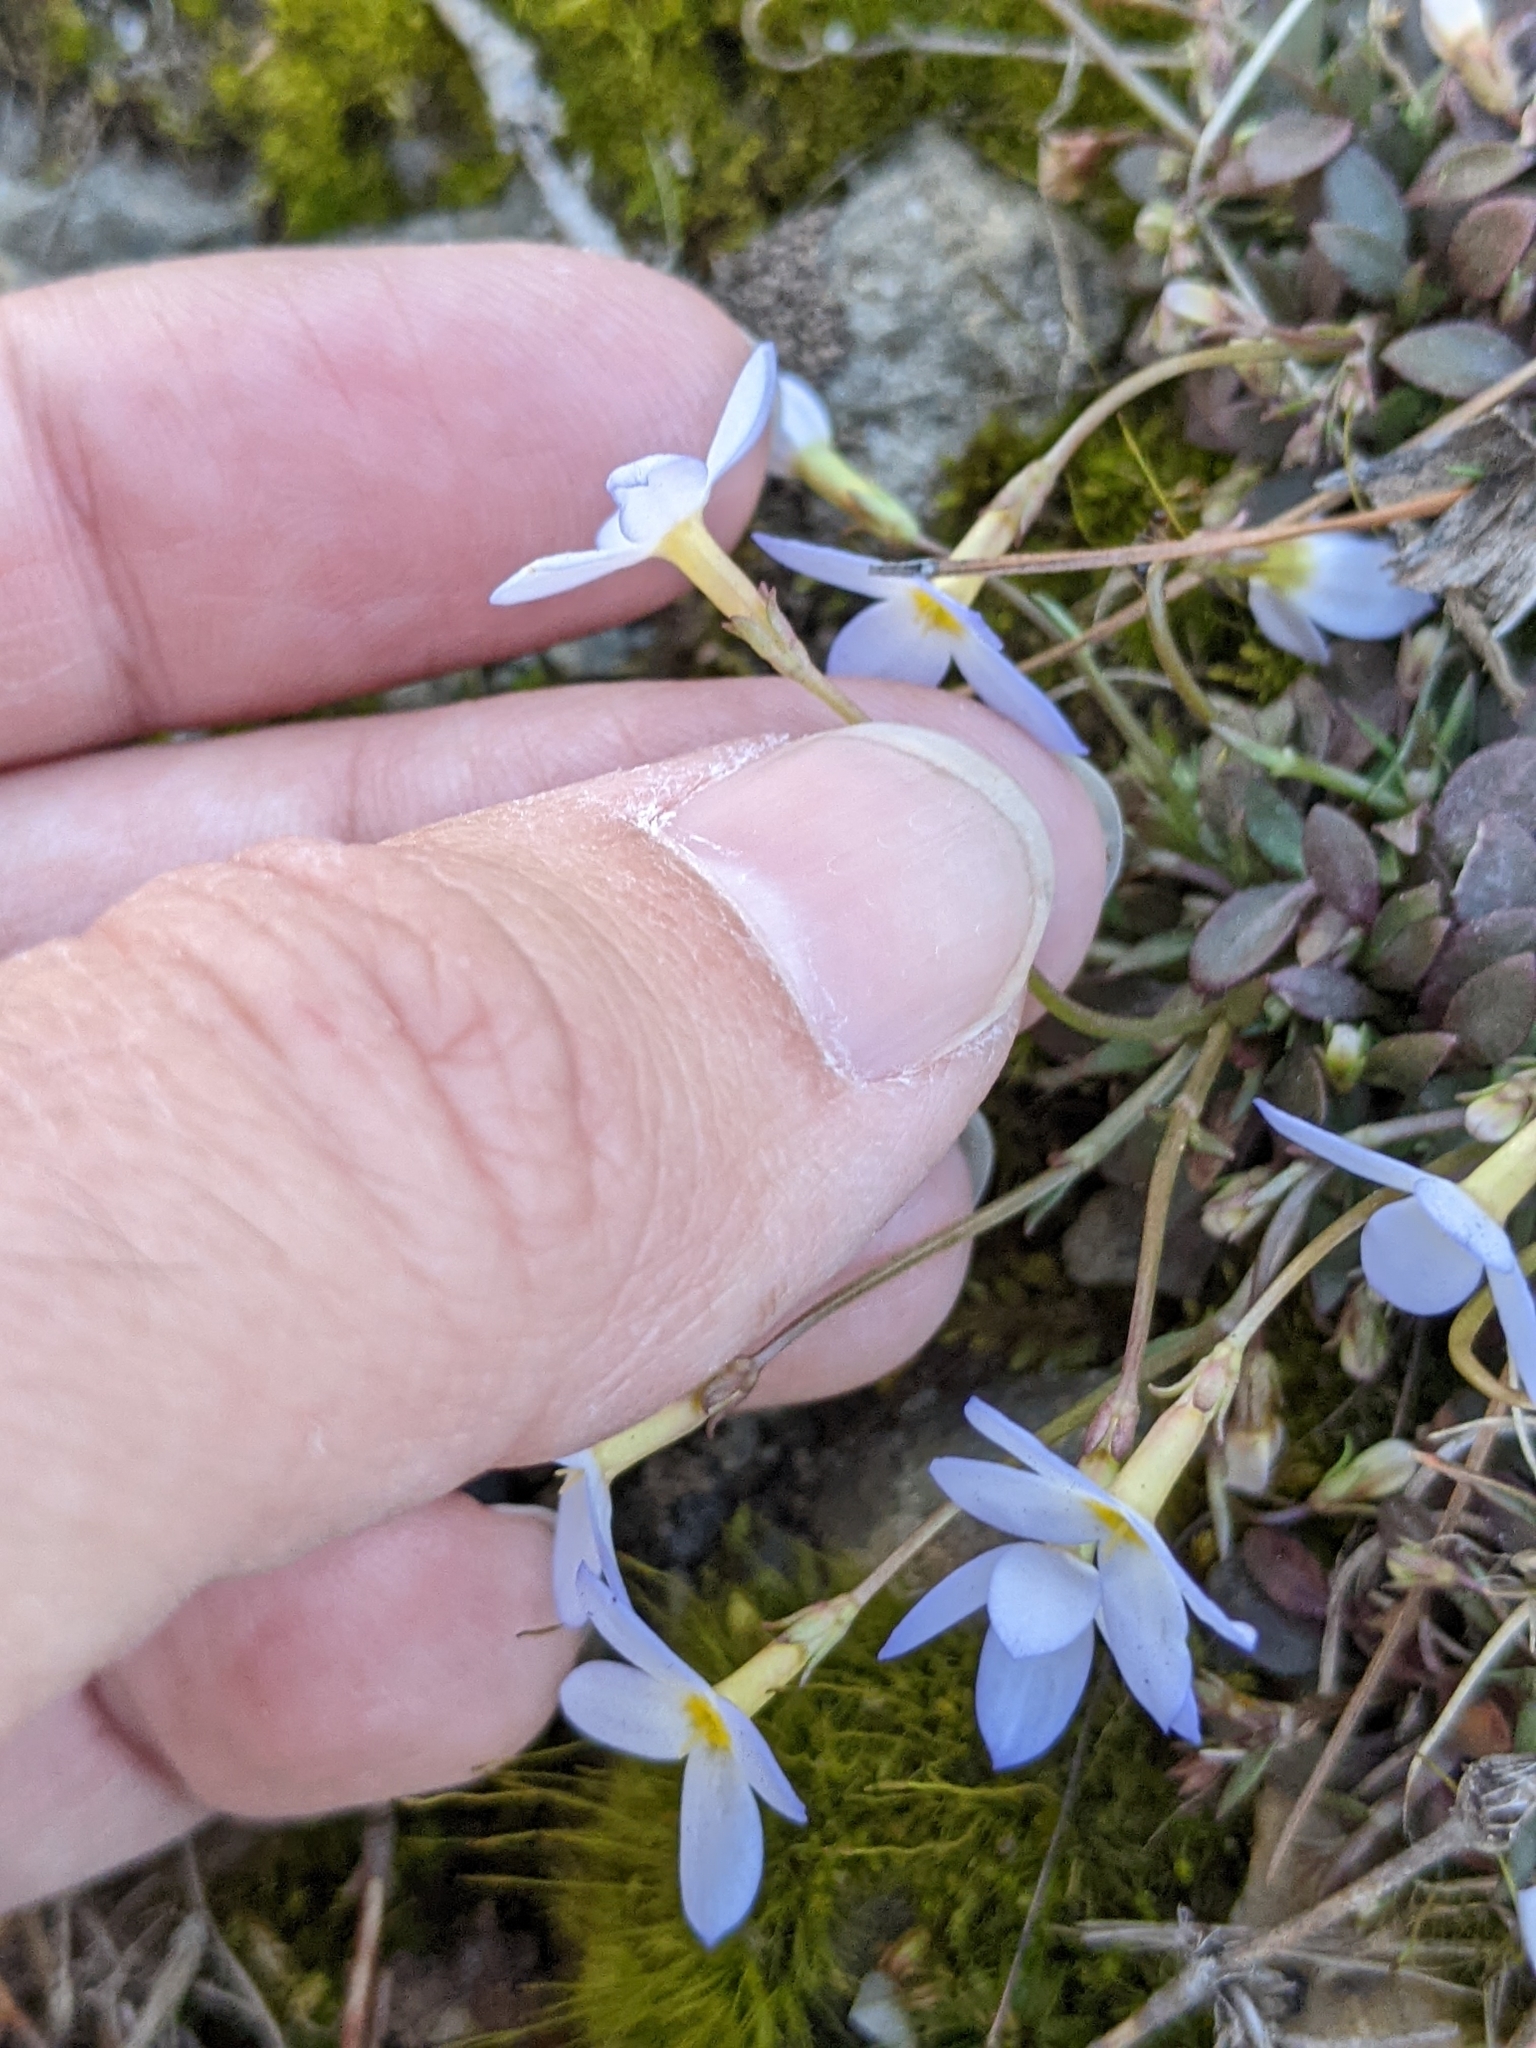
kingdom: Plantae
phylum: Tracheophyta
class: Magnoliopsida
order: Gentianales
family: Rubiaceae
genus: Houstonia
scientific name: Houstonia caerulea
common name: Bluets
